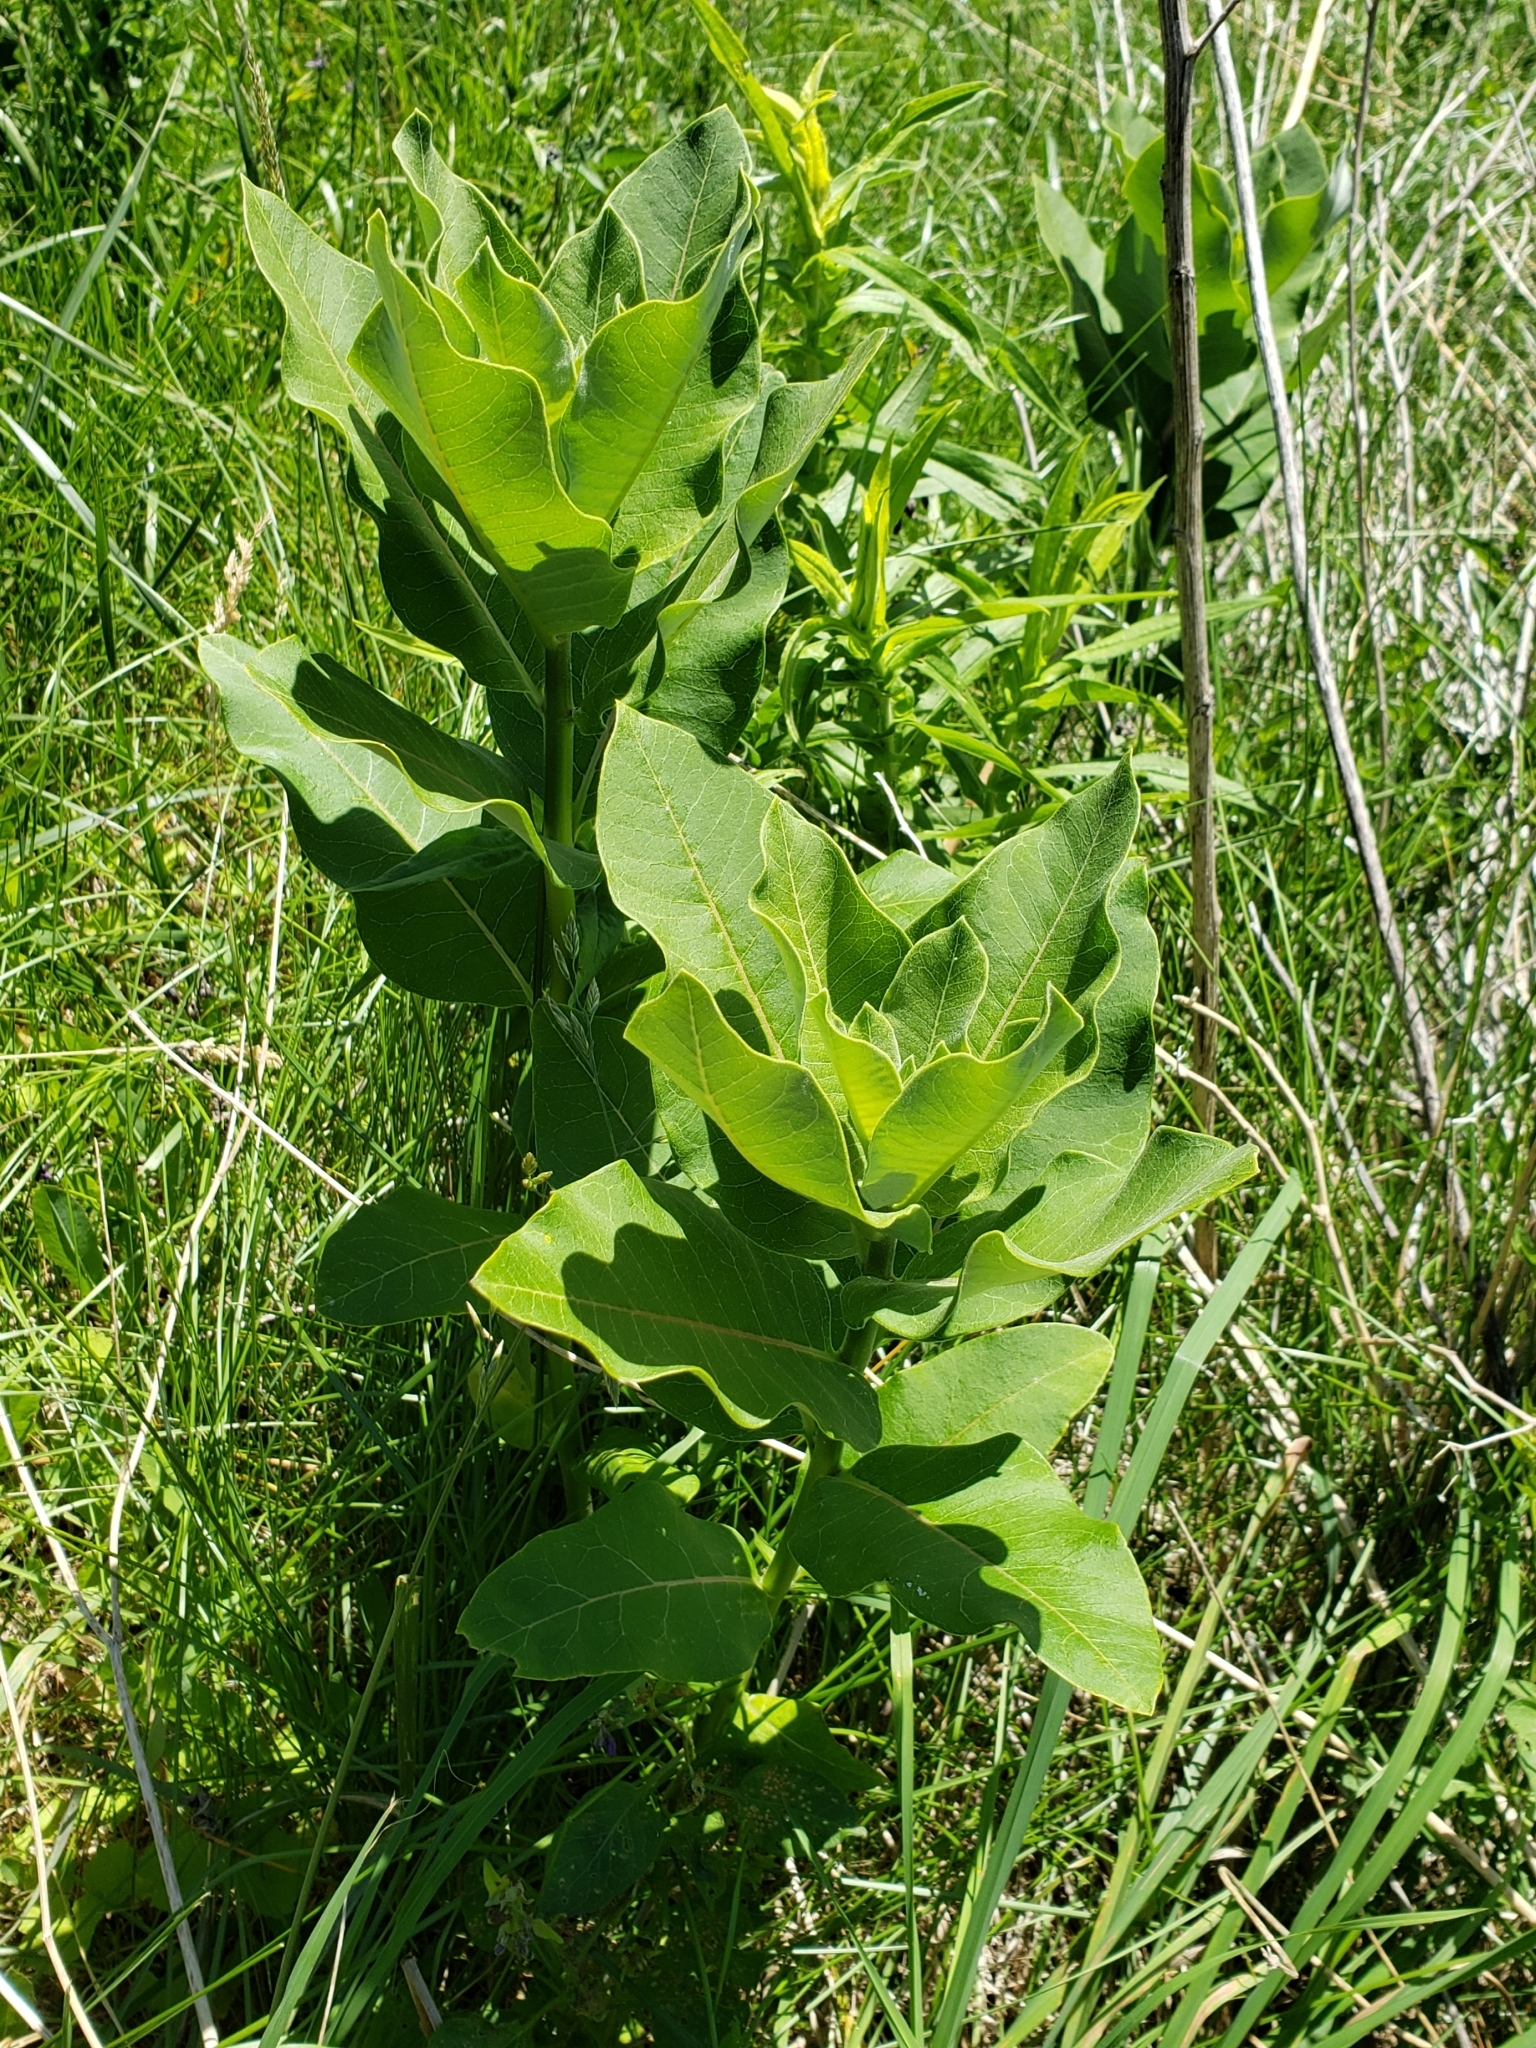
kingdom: Plantae
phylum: Tracheophyta
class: Magnoliopsida
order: Gentianales
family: Apocynaceae
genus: Asclepias
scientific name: Asclepias syriaca
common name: Common milkweed
